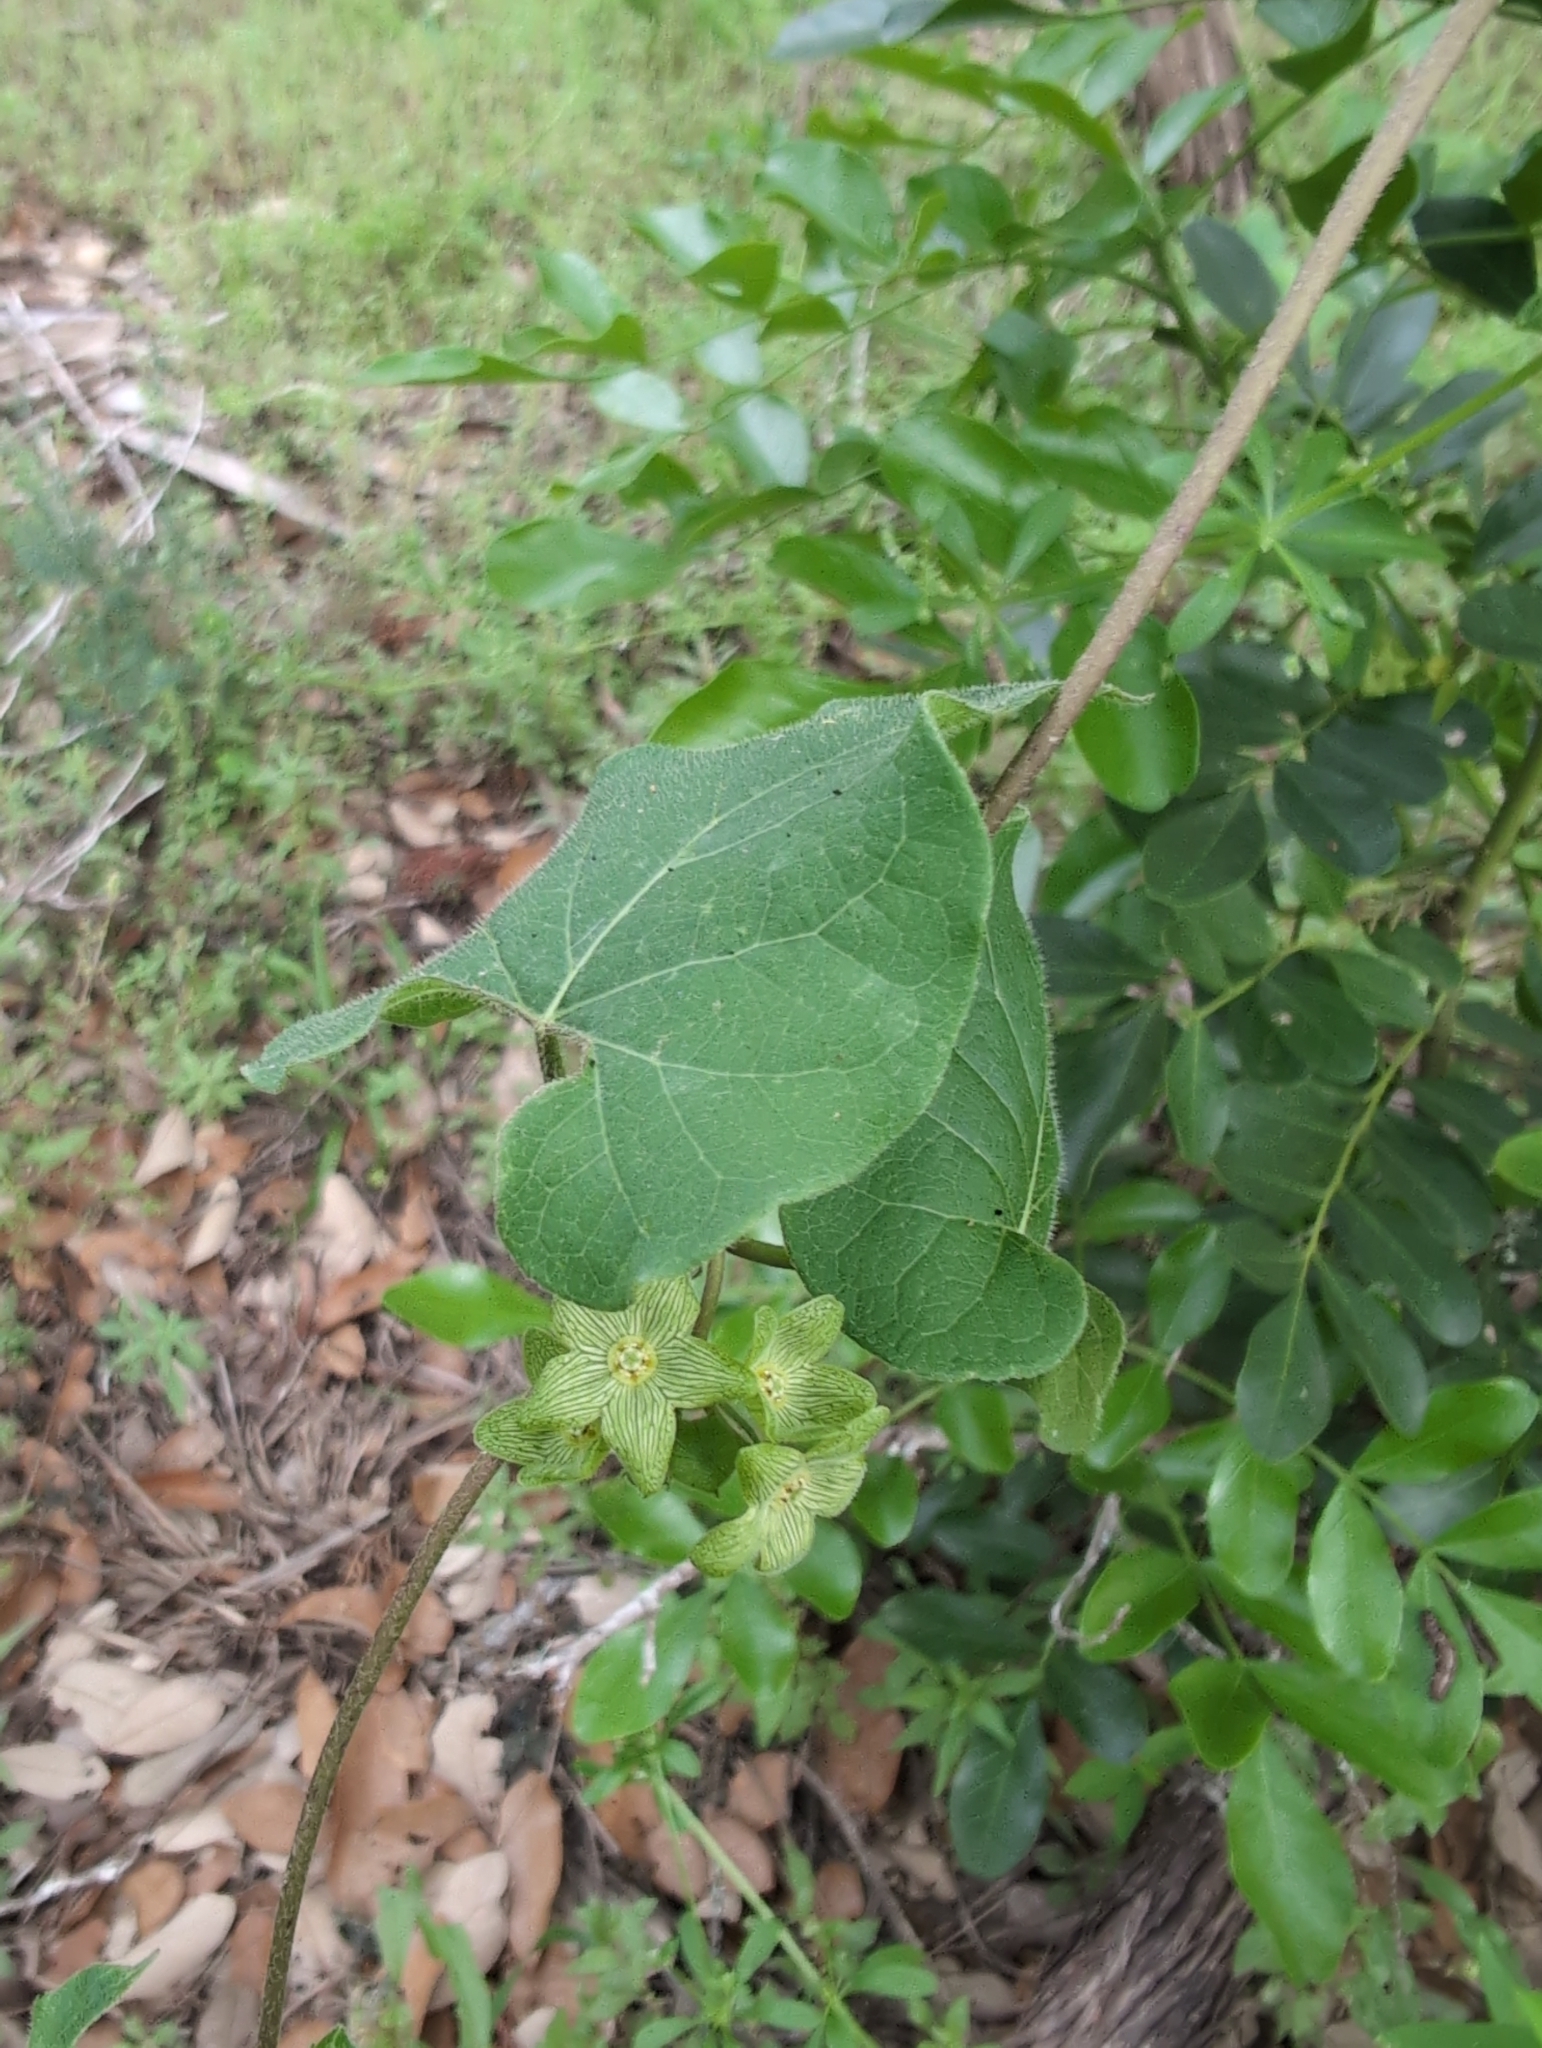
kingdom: Plantae
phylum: Tracheophyta
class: Magnoliopsida
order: Gentianales
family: Apocynaceae
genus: Matelea
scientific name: Matelea edwardsensis
